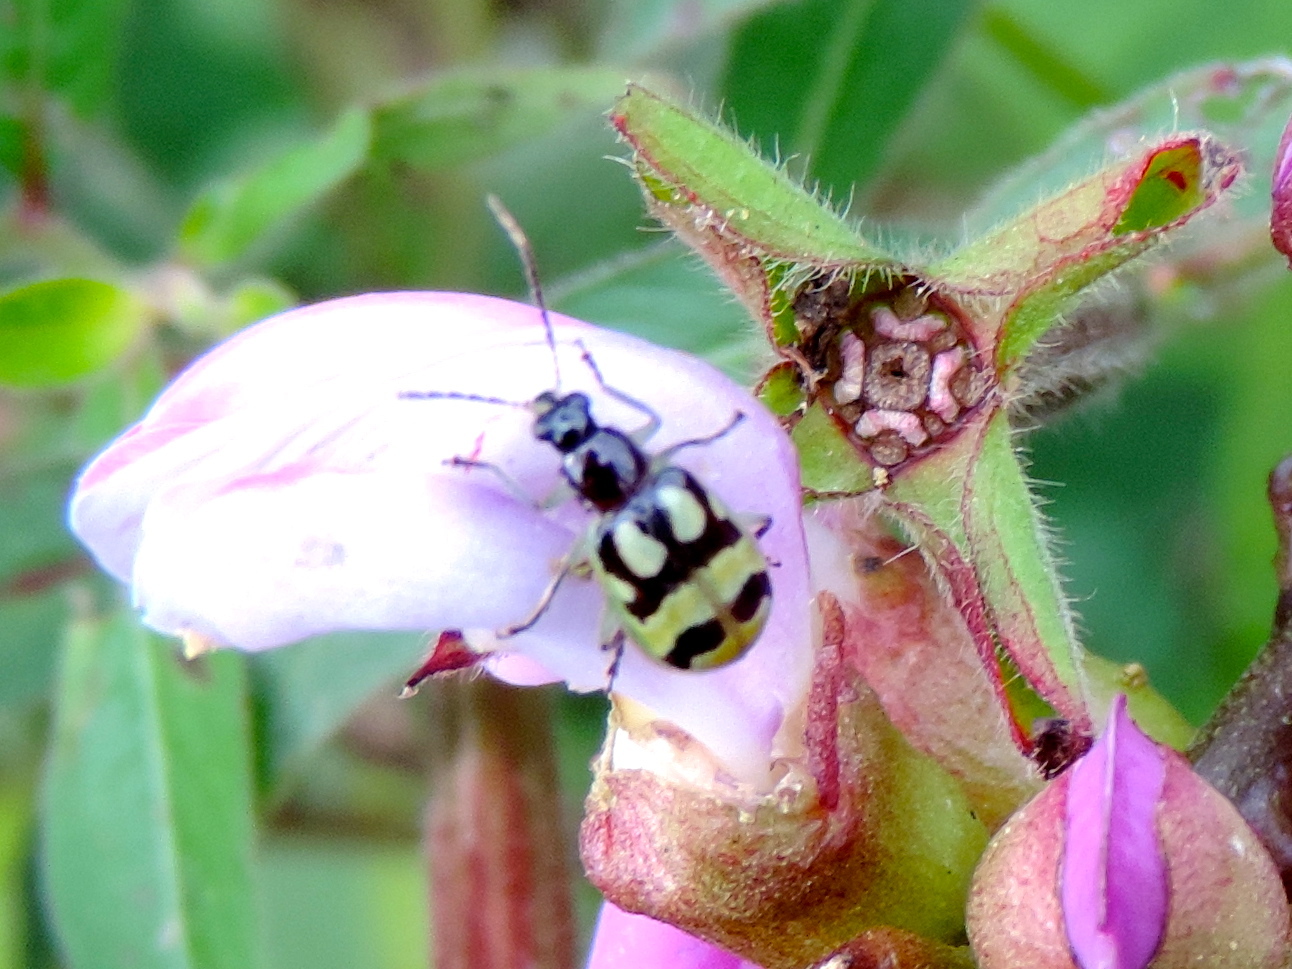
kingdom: Animalia
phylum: Arthropoda
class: Insecta
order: Coleoptera
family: Chrysomelidae
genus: Diabrotica
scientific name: Diabrotica
